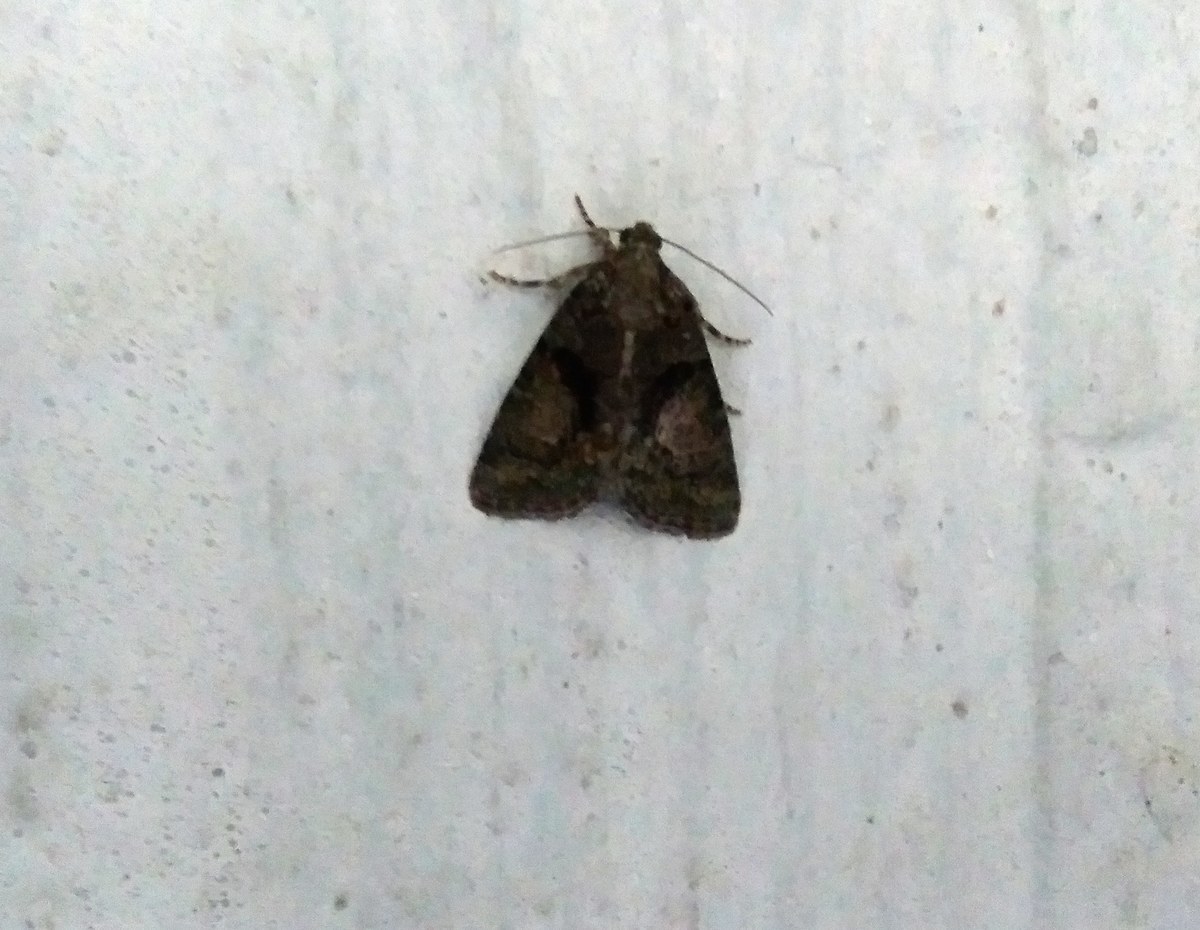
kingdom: Animalia
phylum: Arthropoda
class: Insecta
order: Lepidoptera
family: Noctuidae
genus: Cryphia
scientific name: Cryphia algae
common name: Tree-lichen beauty
